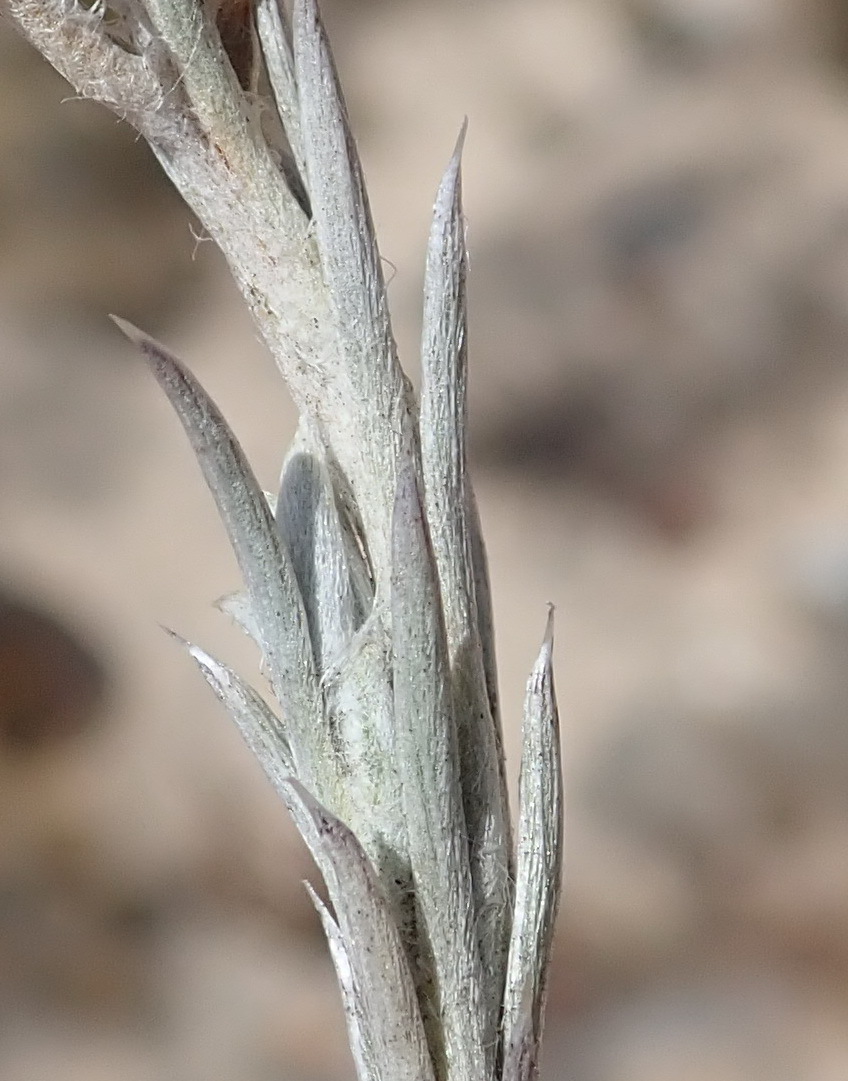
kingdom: Plantae
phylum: Tracheophyta
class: Magnoliopsida
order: Asterales
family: Asteraceae
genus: Achyranthemum
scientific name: Achyranthemum paniculatum
